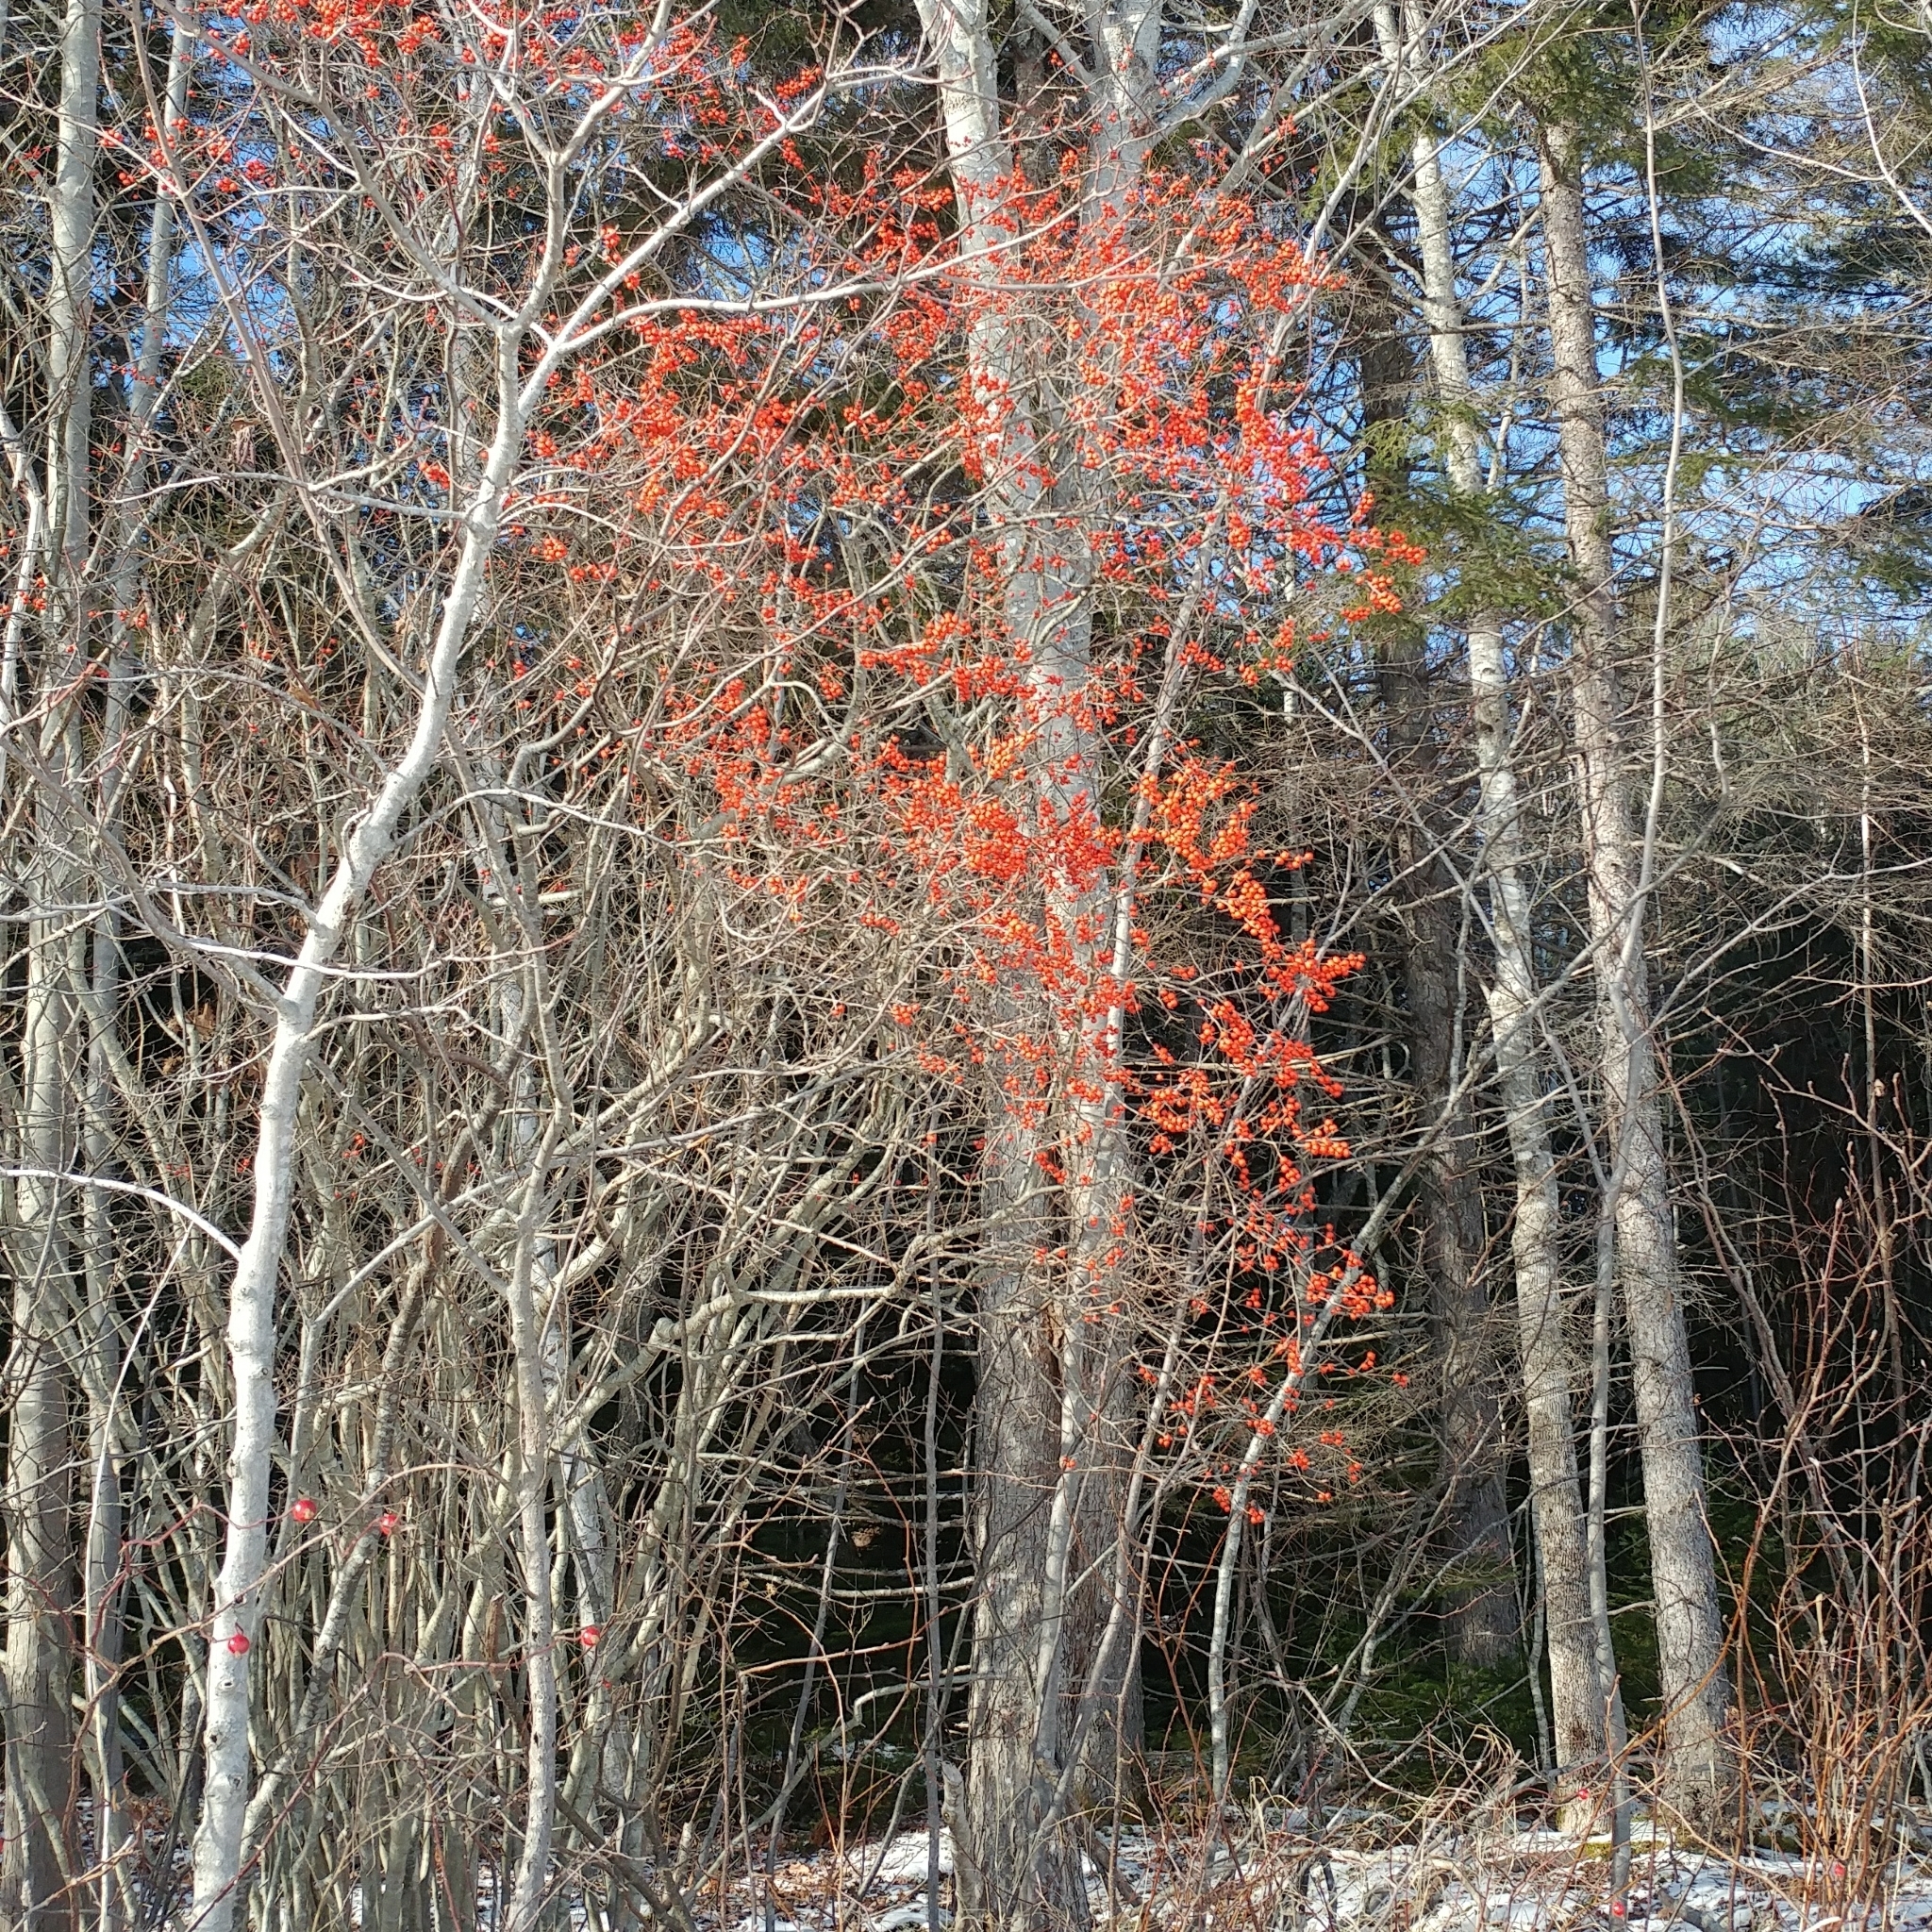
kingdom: Plantae
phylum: Tracheophyta
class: Magnoliopsida
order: Aquifoliales
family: Aquifoliaceae
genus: Ilex
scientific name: Ilex verticillata
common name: Virginia winterberry
